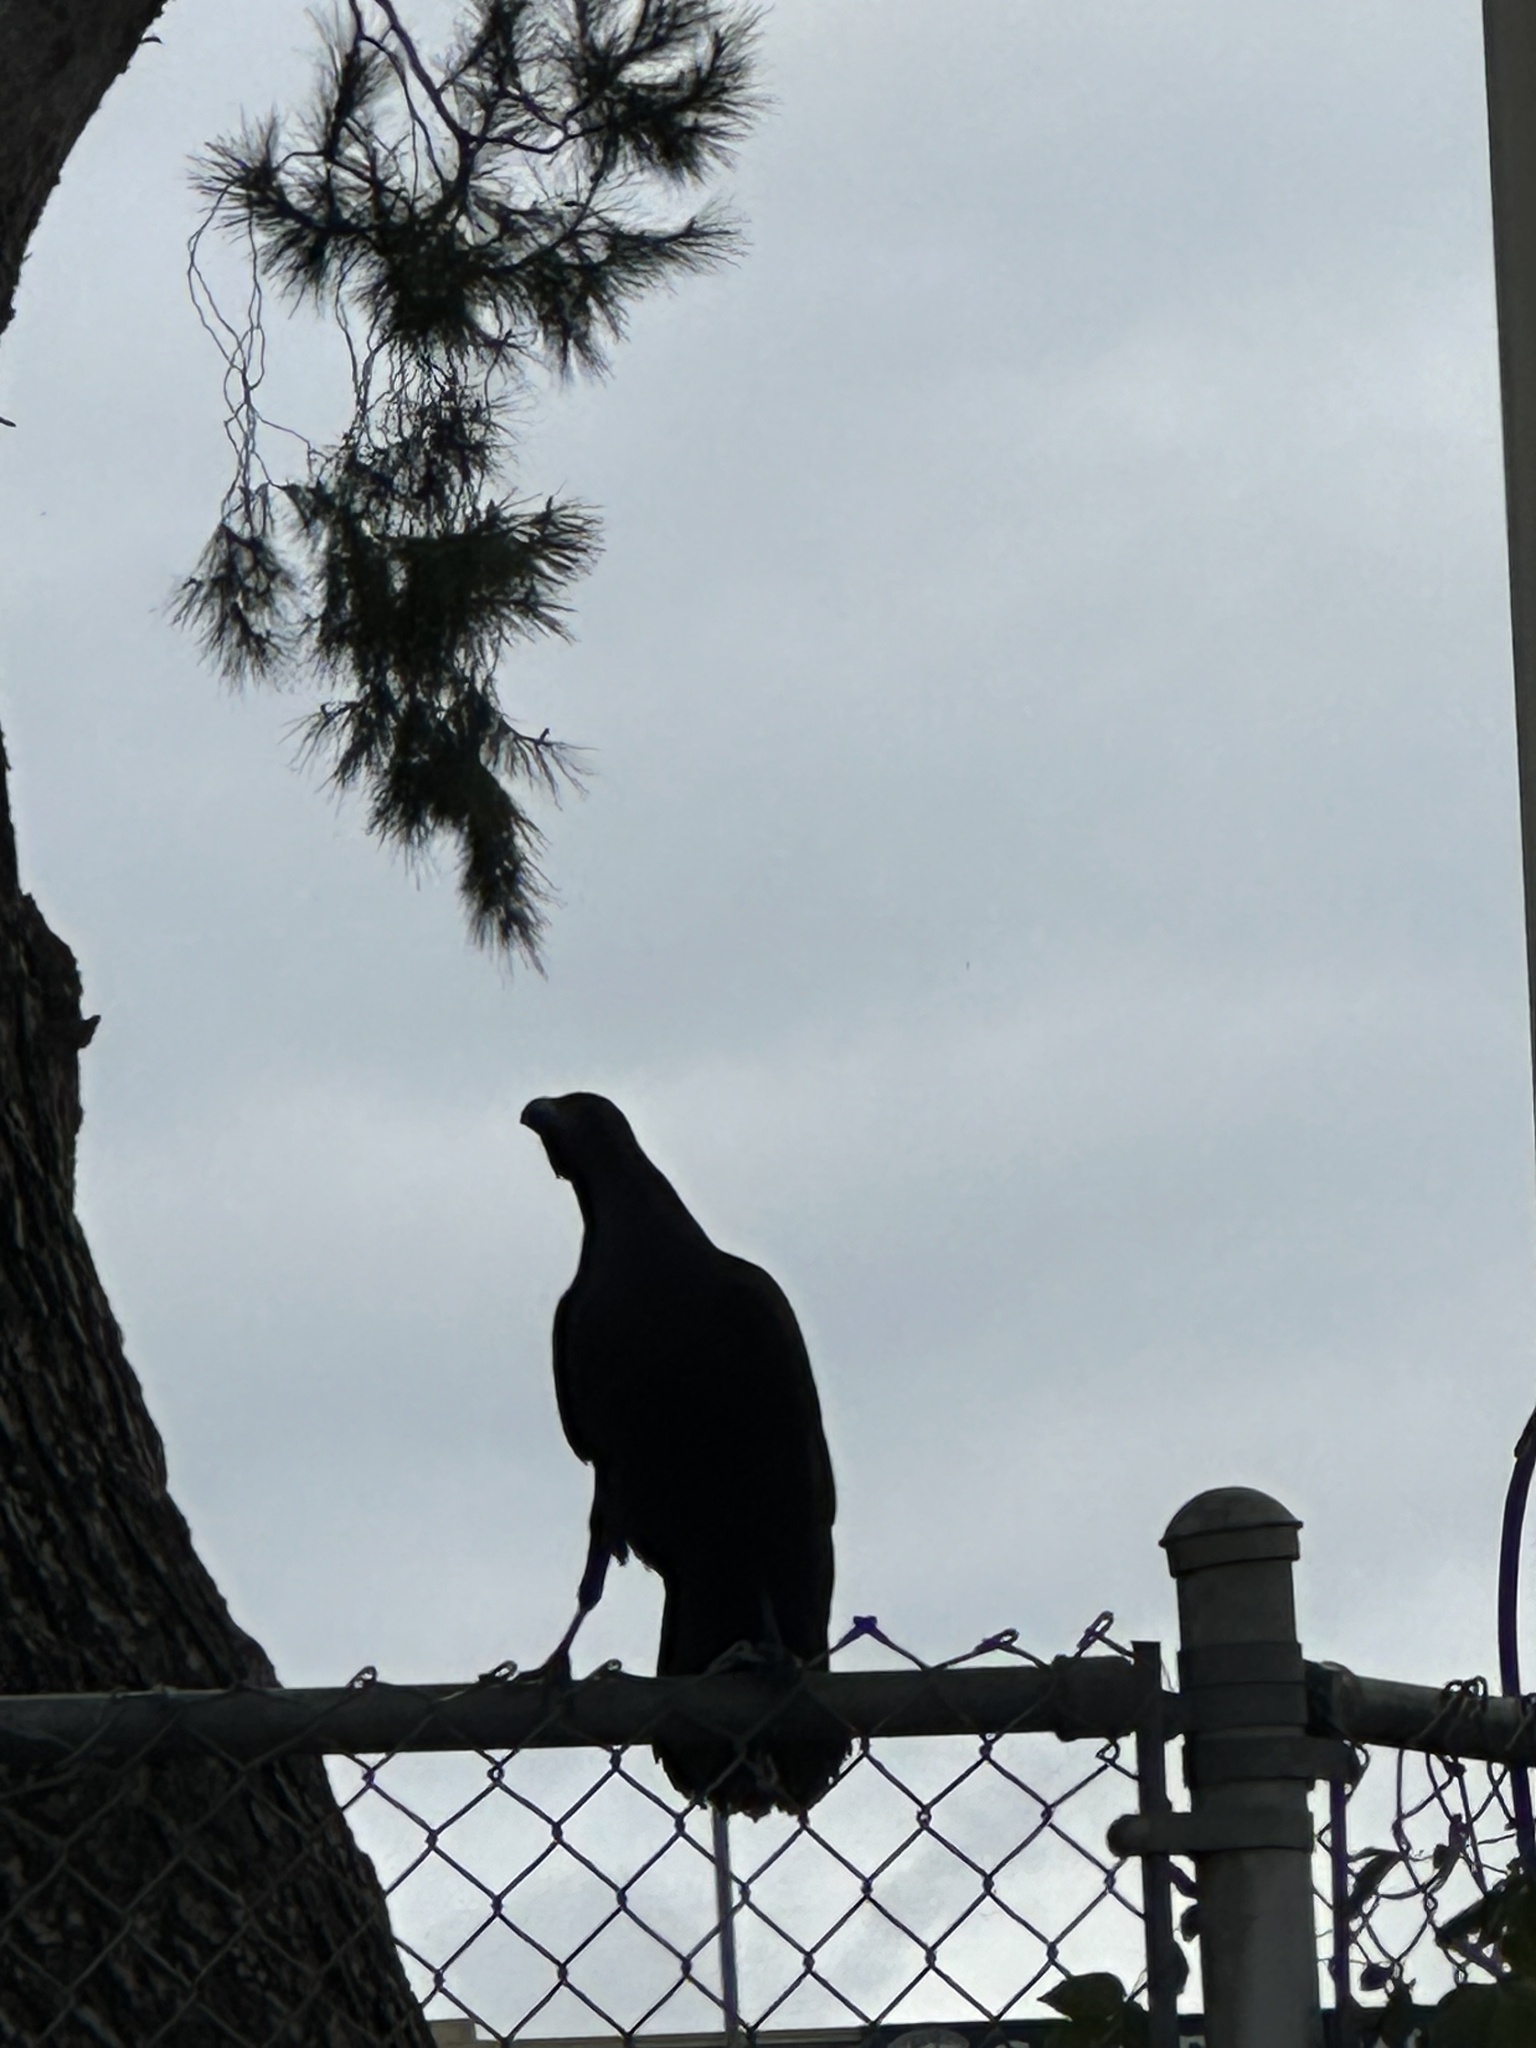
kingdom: Animalia
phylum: Chordata
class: Aves
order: Passeriformes
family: Corvidae
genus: Corvus
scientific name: Corvus corax
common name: Common raven
